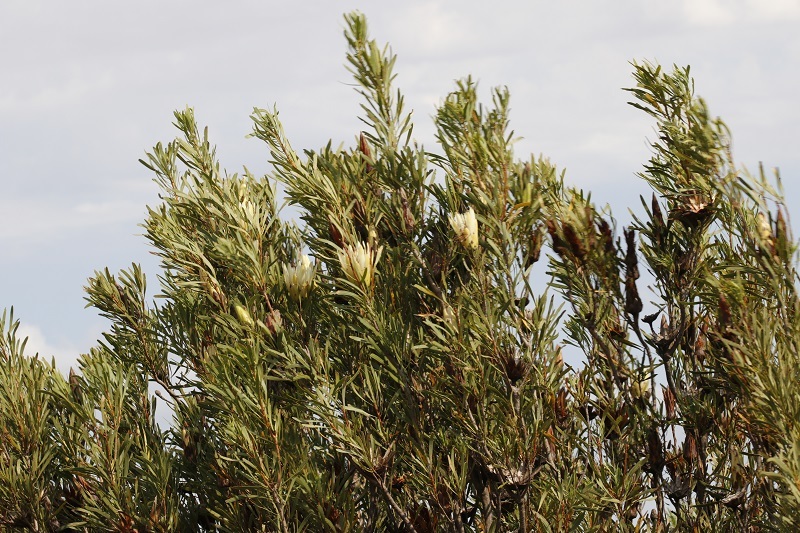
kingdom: Plantae
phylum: Tracheophyta
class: Magnoliopsida
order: Proteales
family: Proteaceae
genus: Protea
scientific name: Protea repens
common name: Sugarbush
